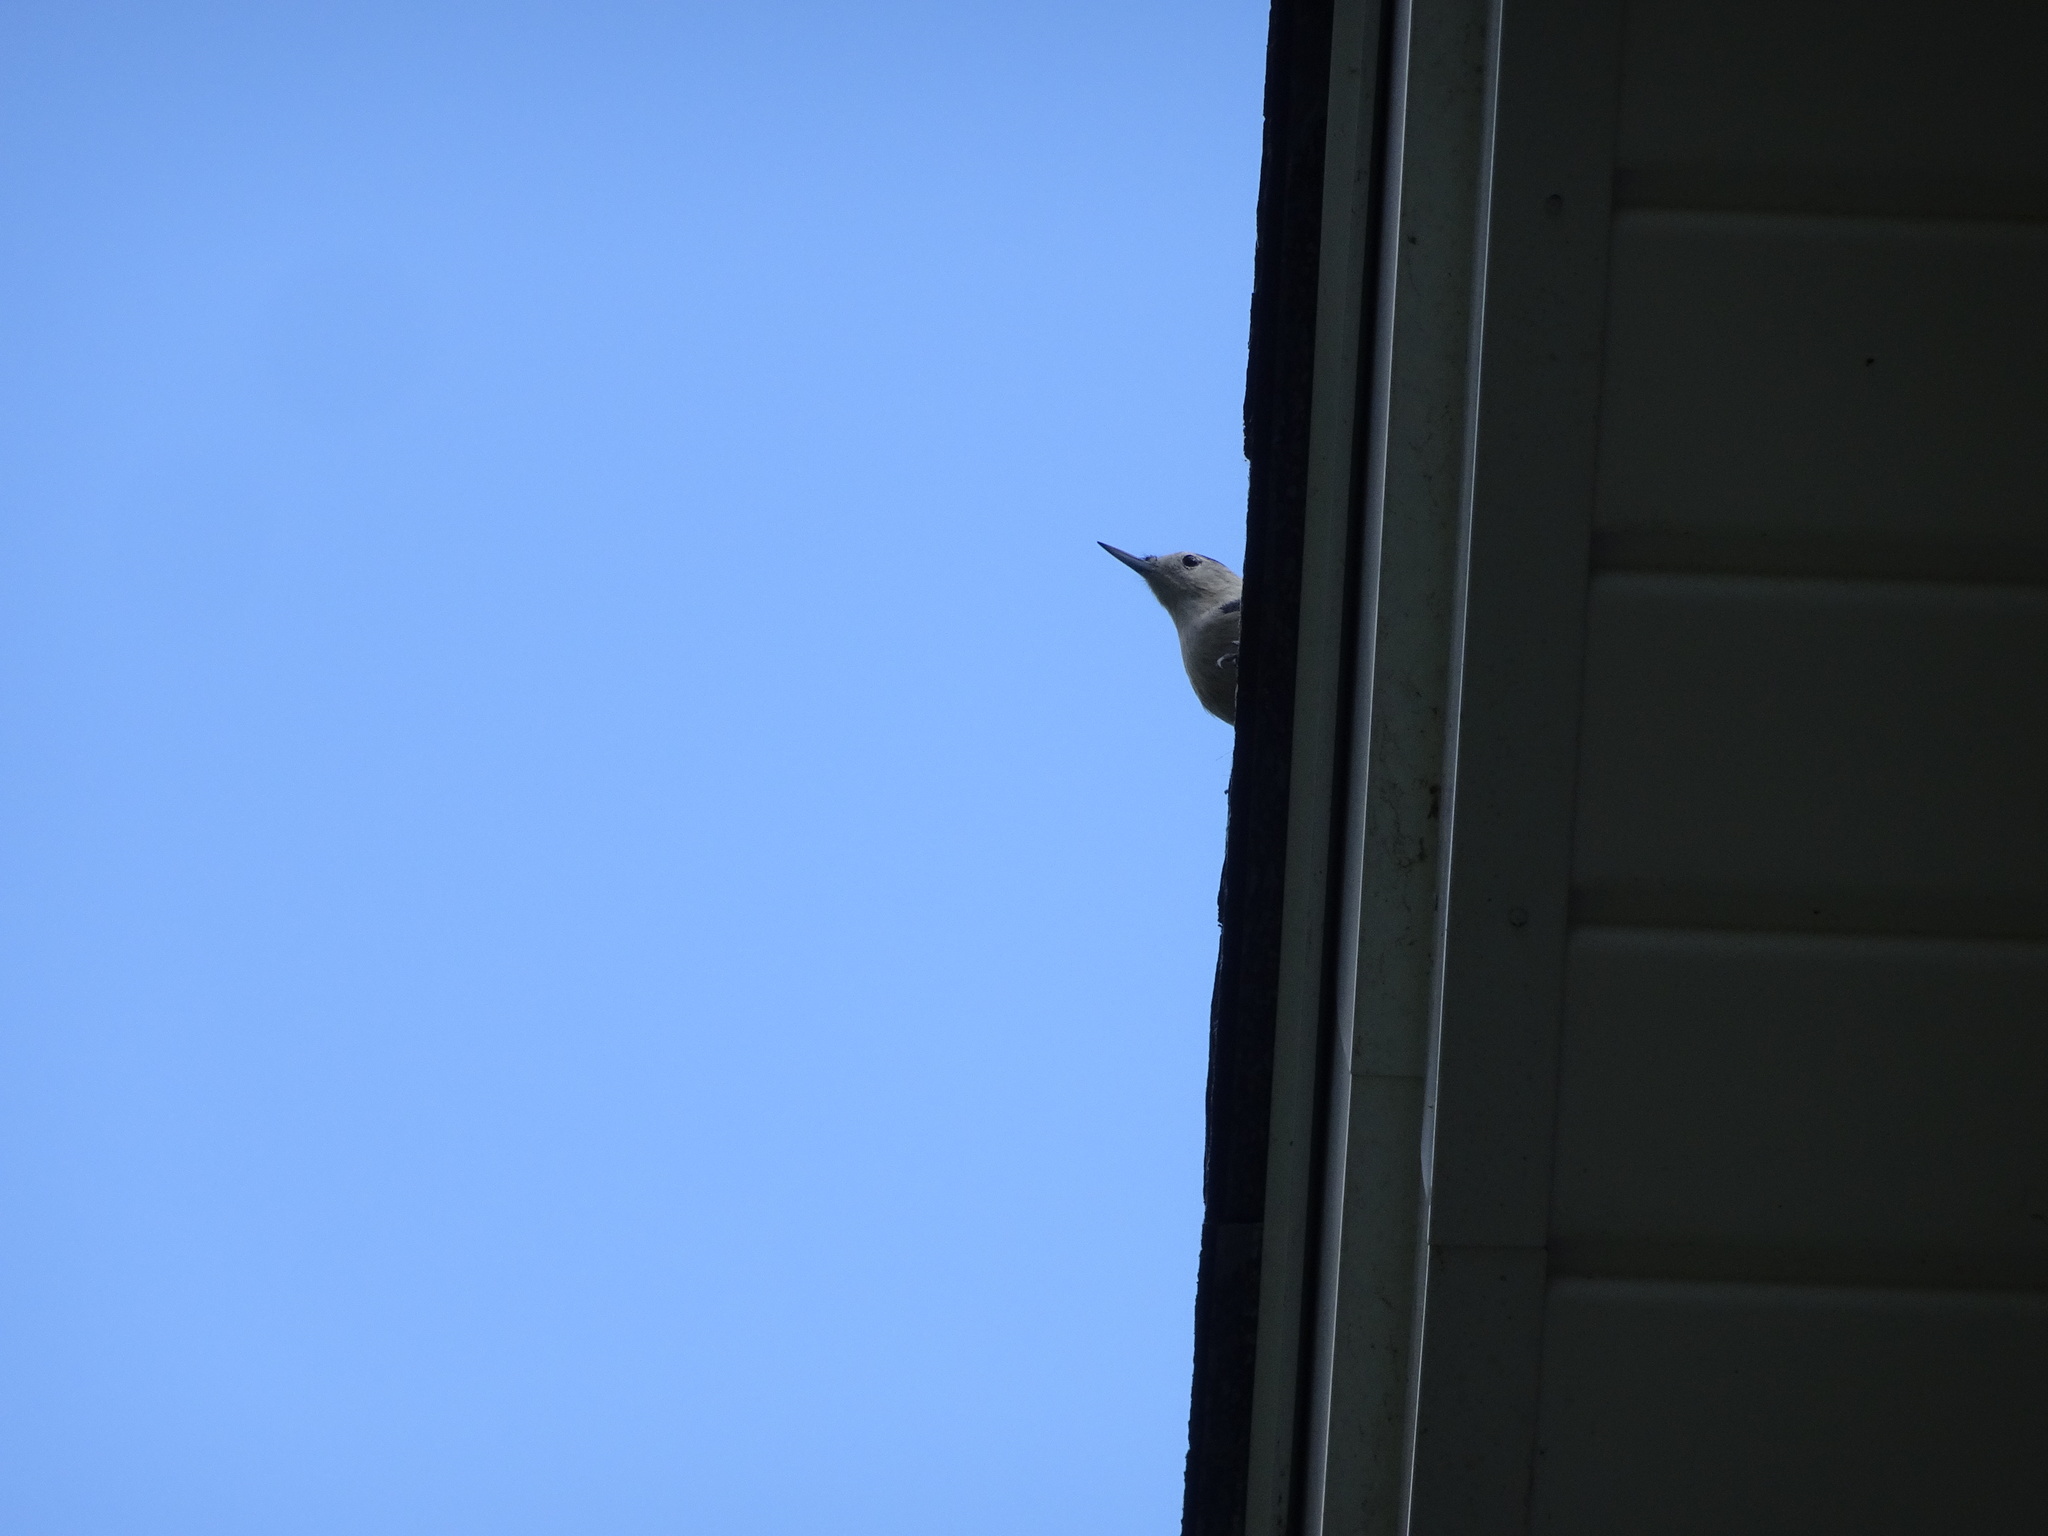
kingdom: Animalia
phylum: Chordata
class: Aves
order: Passeriformes
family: Sittidae
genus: Sitta
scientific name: Sitta carolinensis
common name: White-breasted nuthatch
